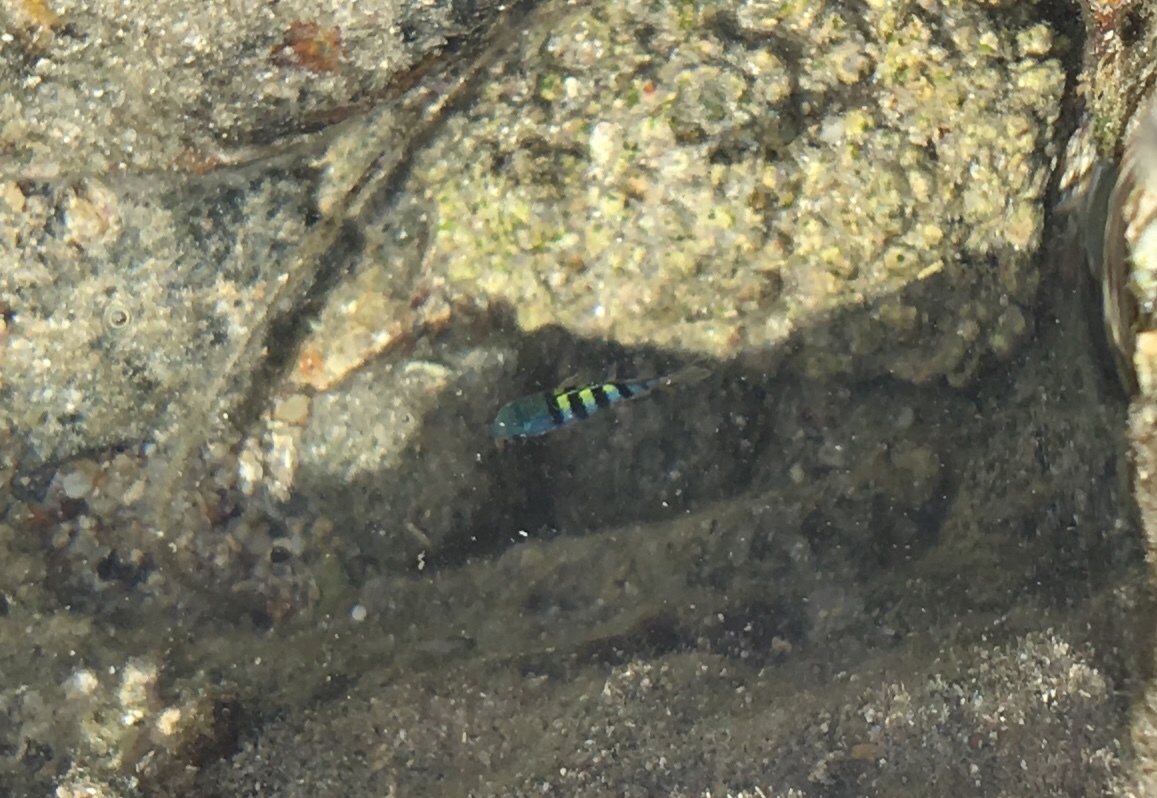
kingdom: Animalia
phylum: Chordata
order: Perciformes
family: Pomacentridae
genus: Abudefduf
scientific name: Abudefduf
